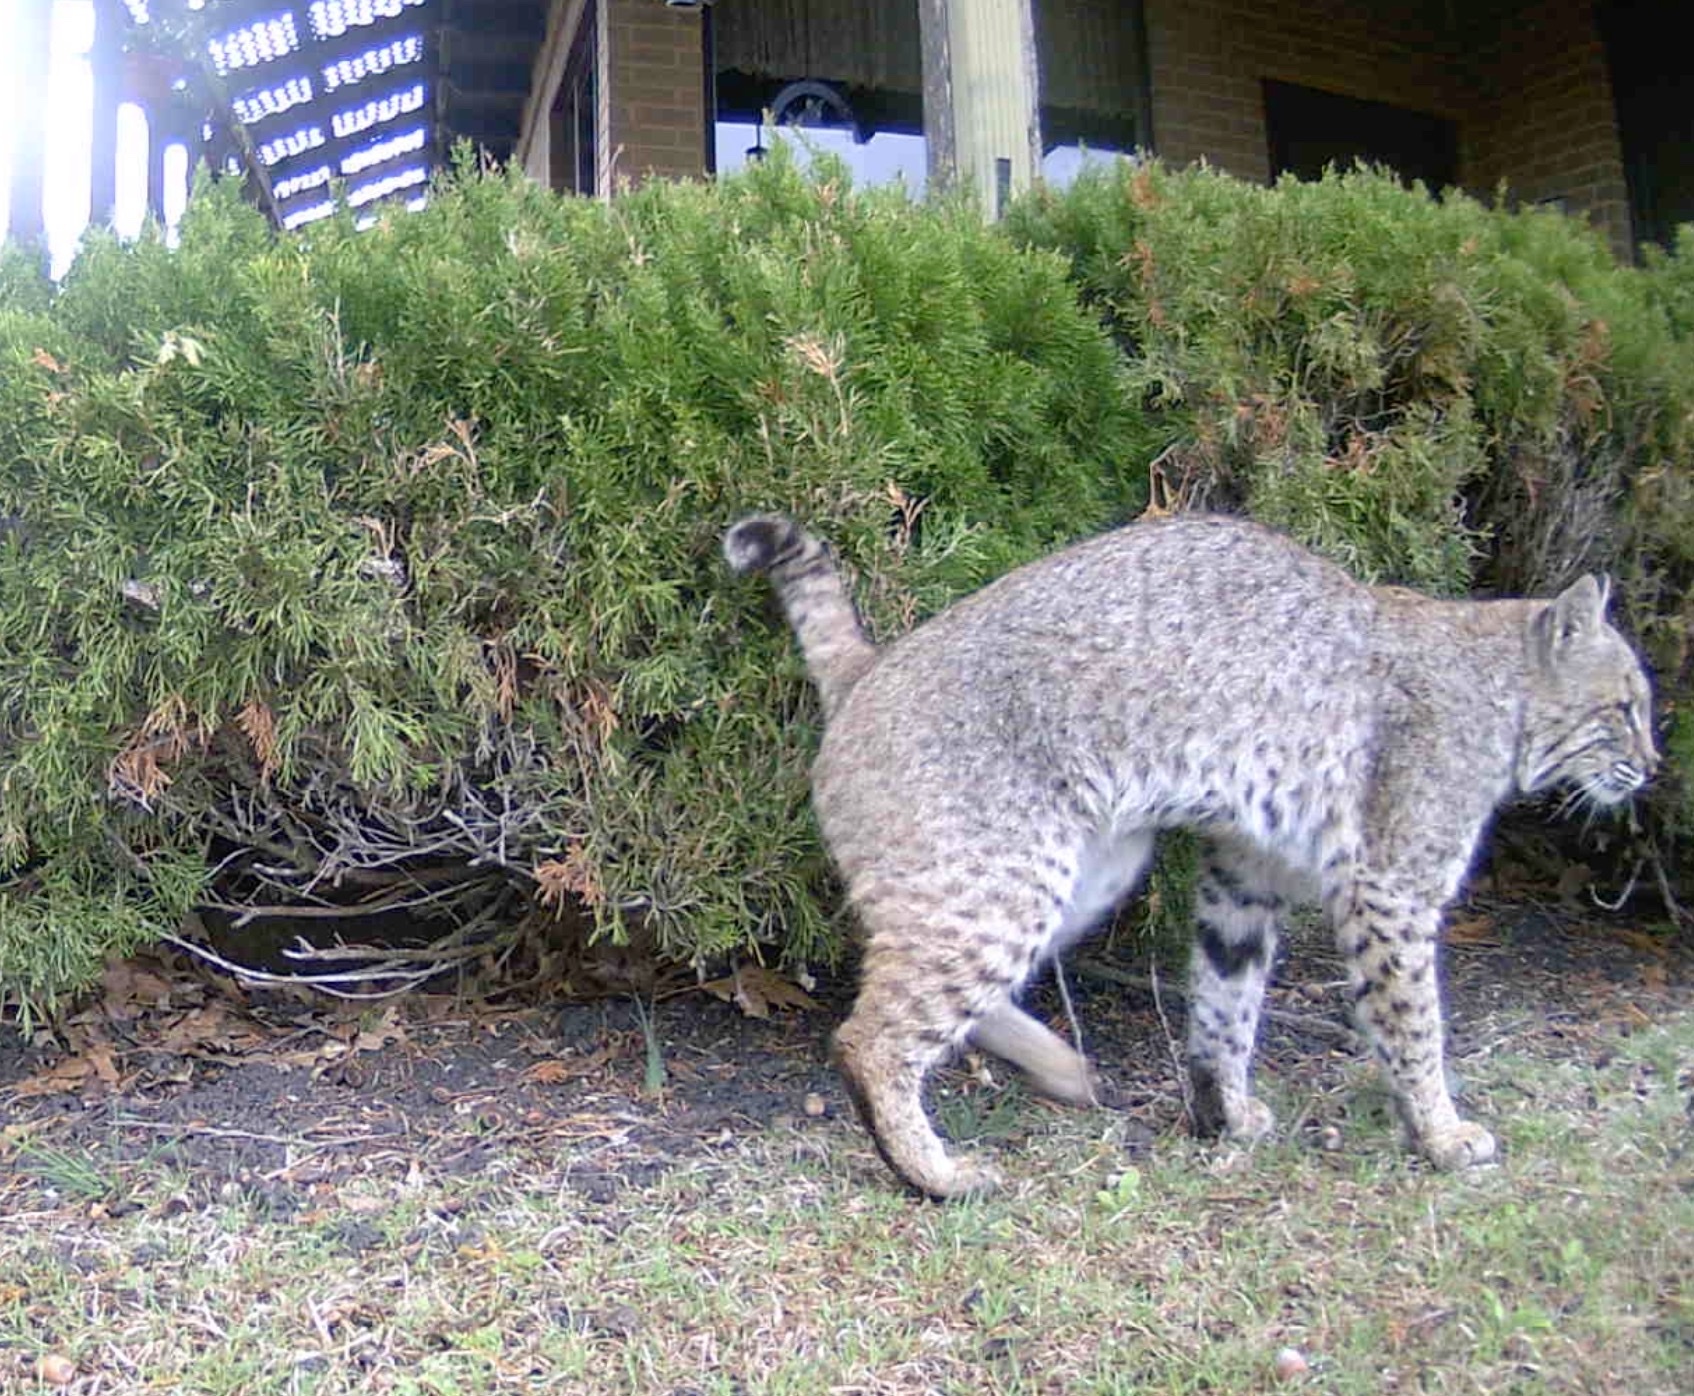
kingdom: Animalia
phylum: Chordata
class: Mammalia
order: Carnivora
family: Felidae
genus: Lynx
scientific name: Lynx rufus
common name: Bobcat
